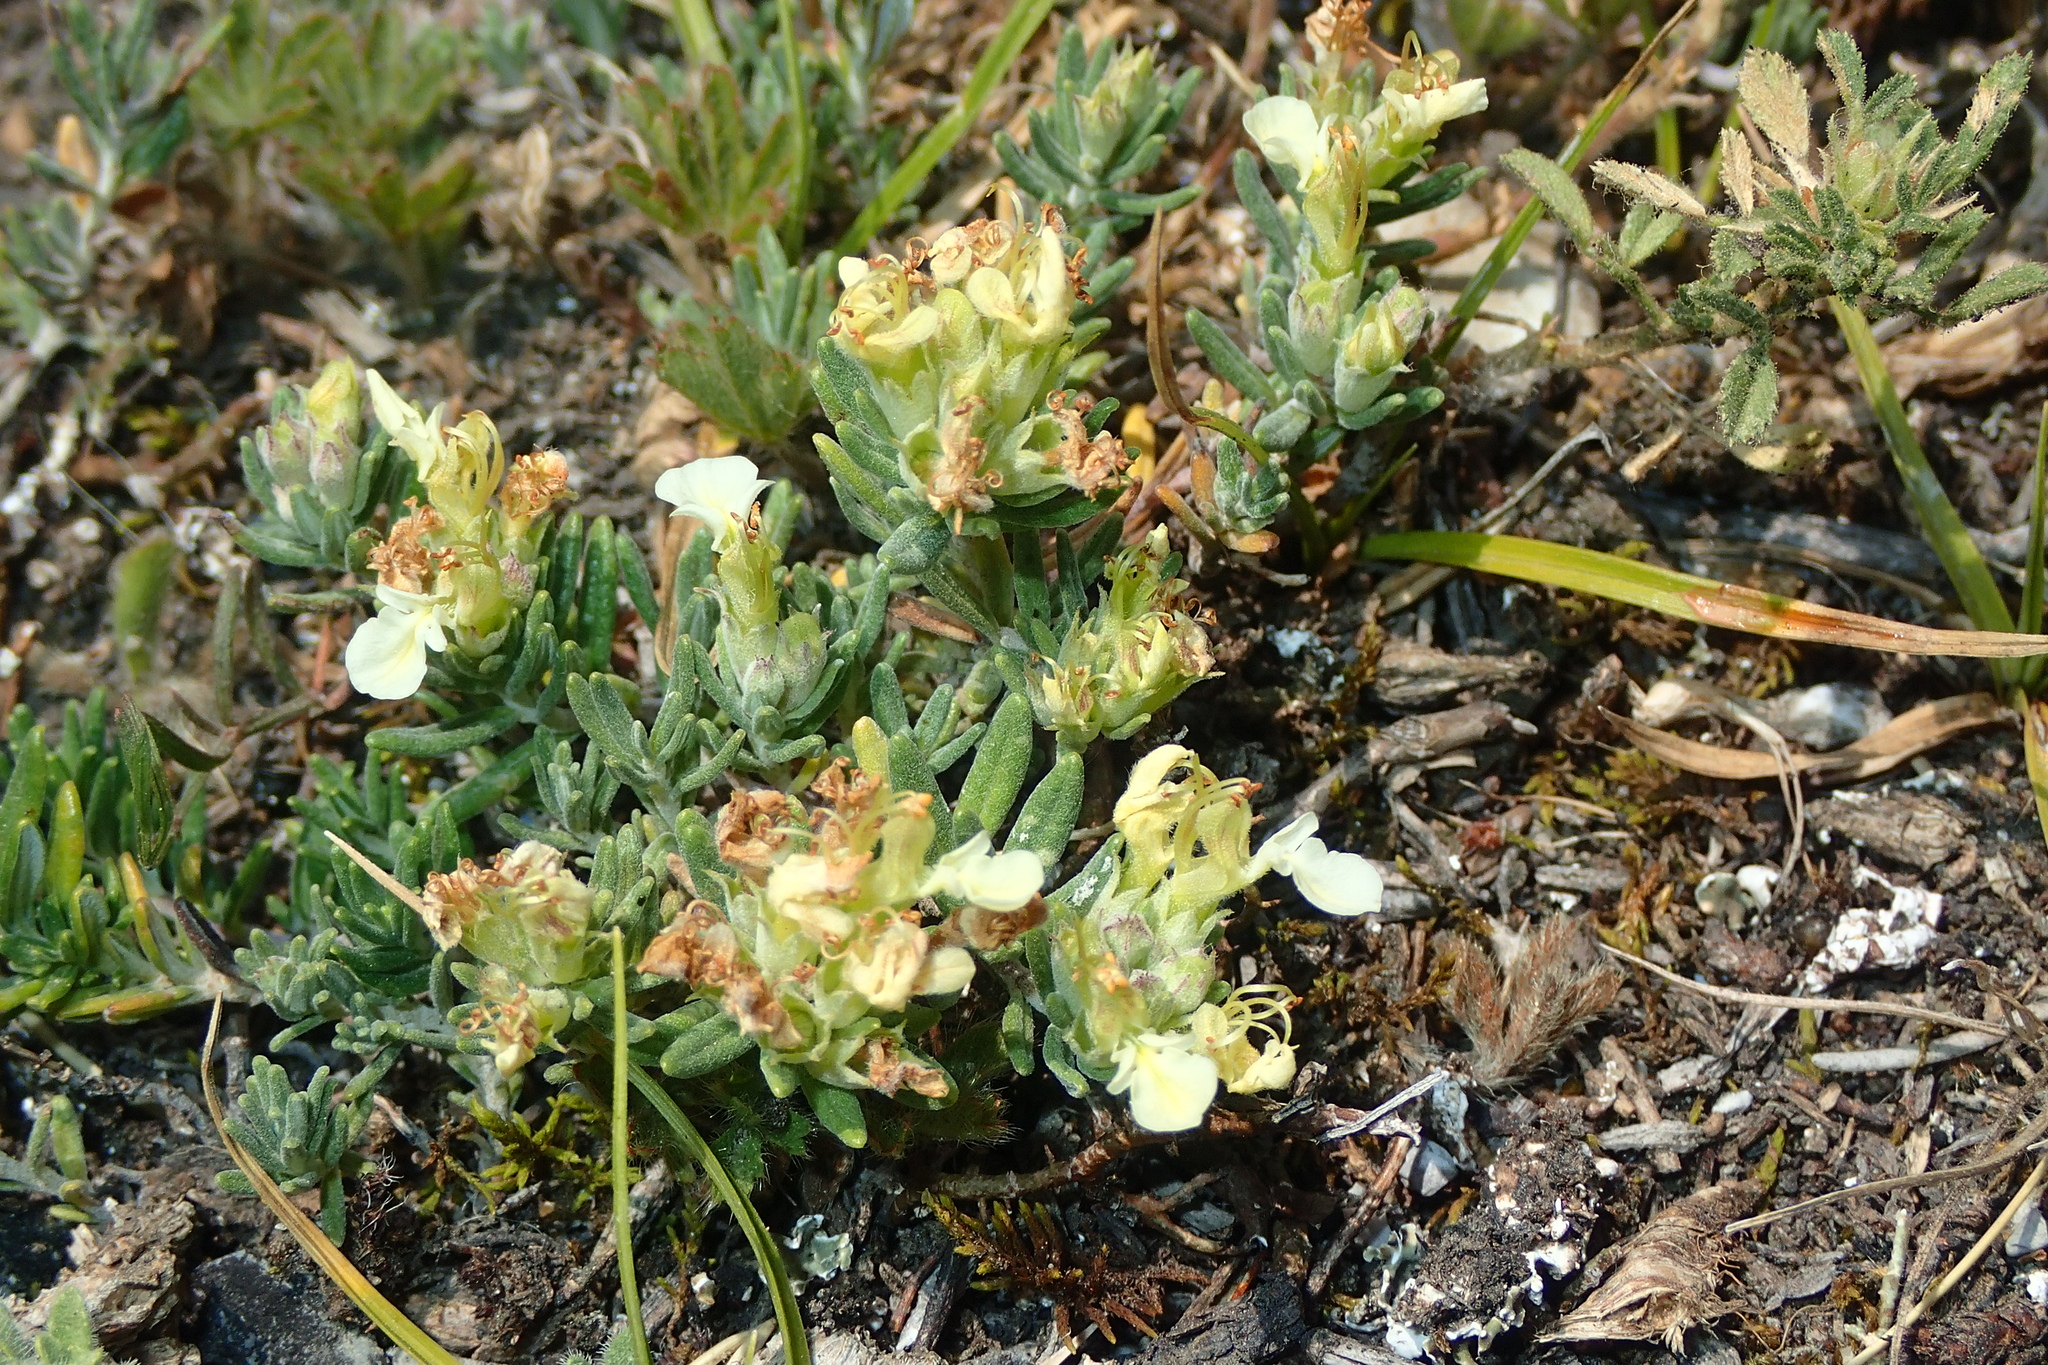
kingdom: Plantae
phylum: Tracheophyta
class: Magnoliopsida
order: Lamiales
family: Lamiaceae
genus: Teucrium
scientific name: Teucrium montanum
